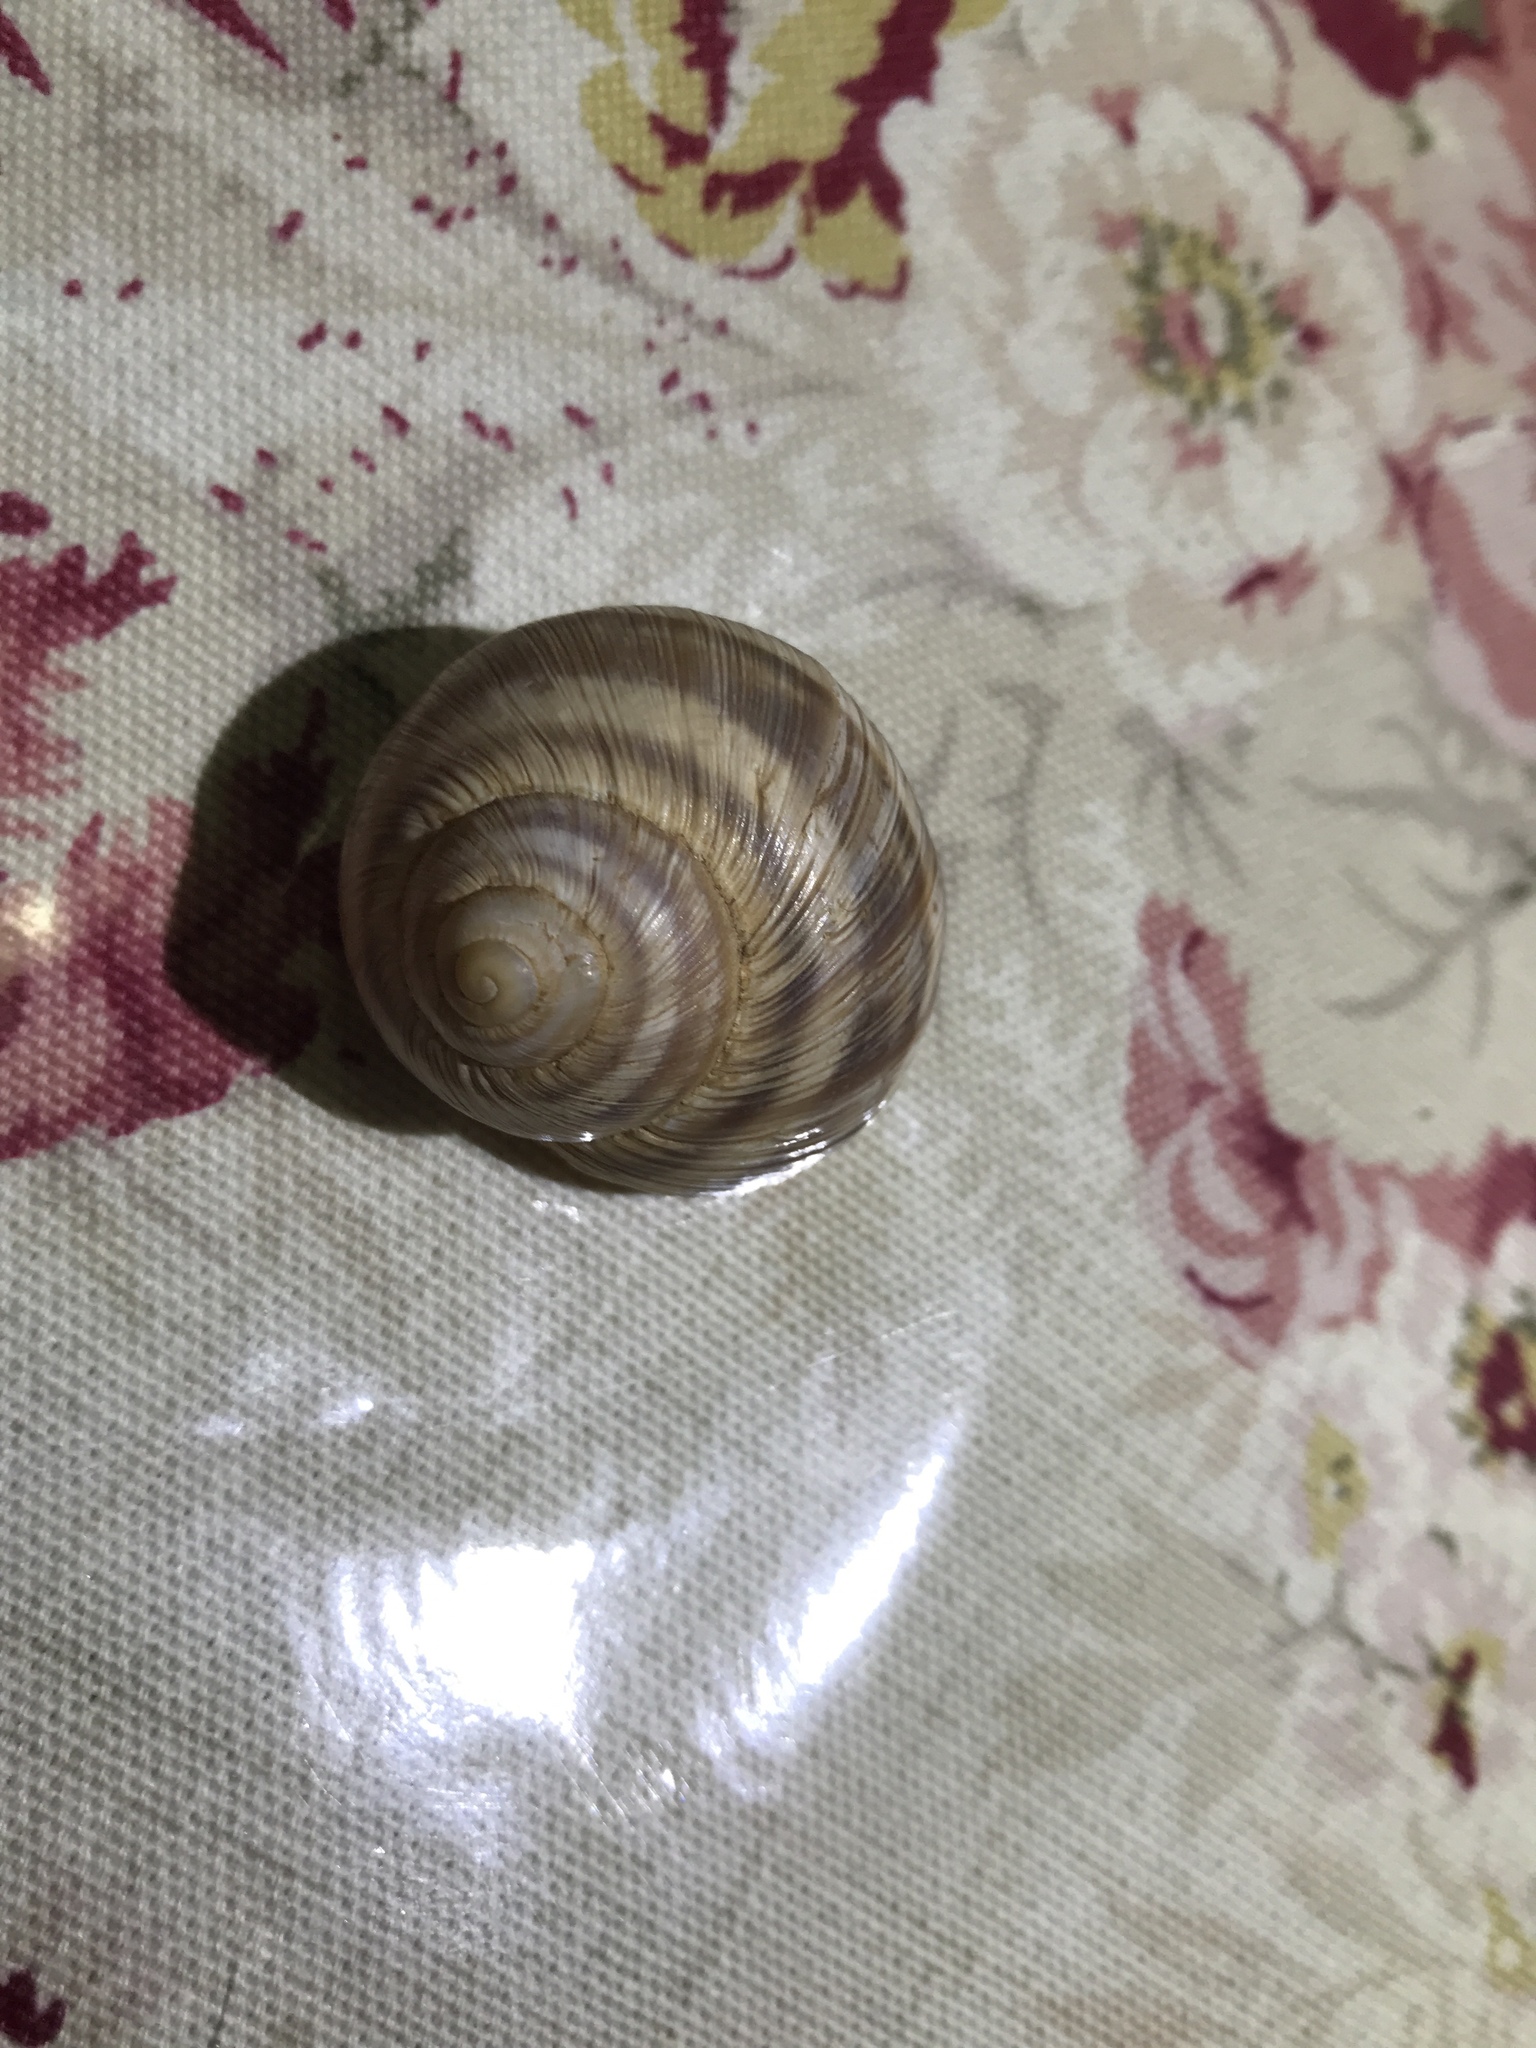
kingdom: Animalia
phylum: Mollusca
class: Gastropoda
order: Stylommatophora
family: Helicidae
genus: Helix
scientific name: Helix nucula
